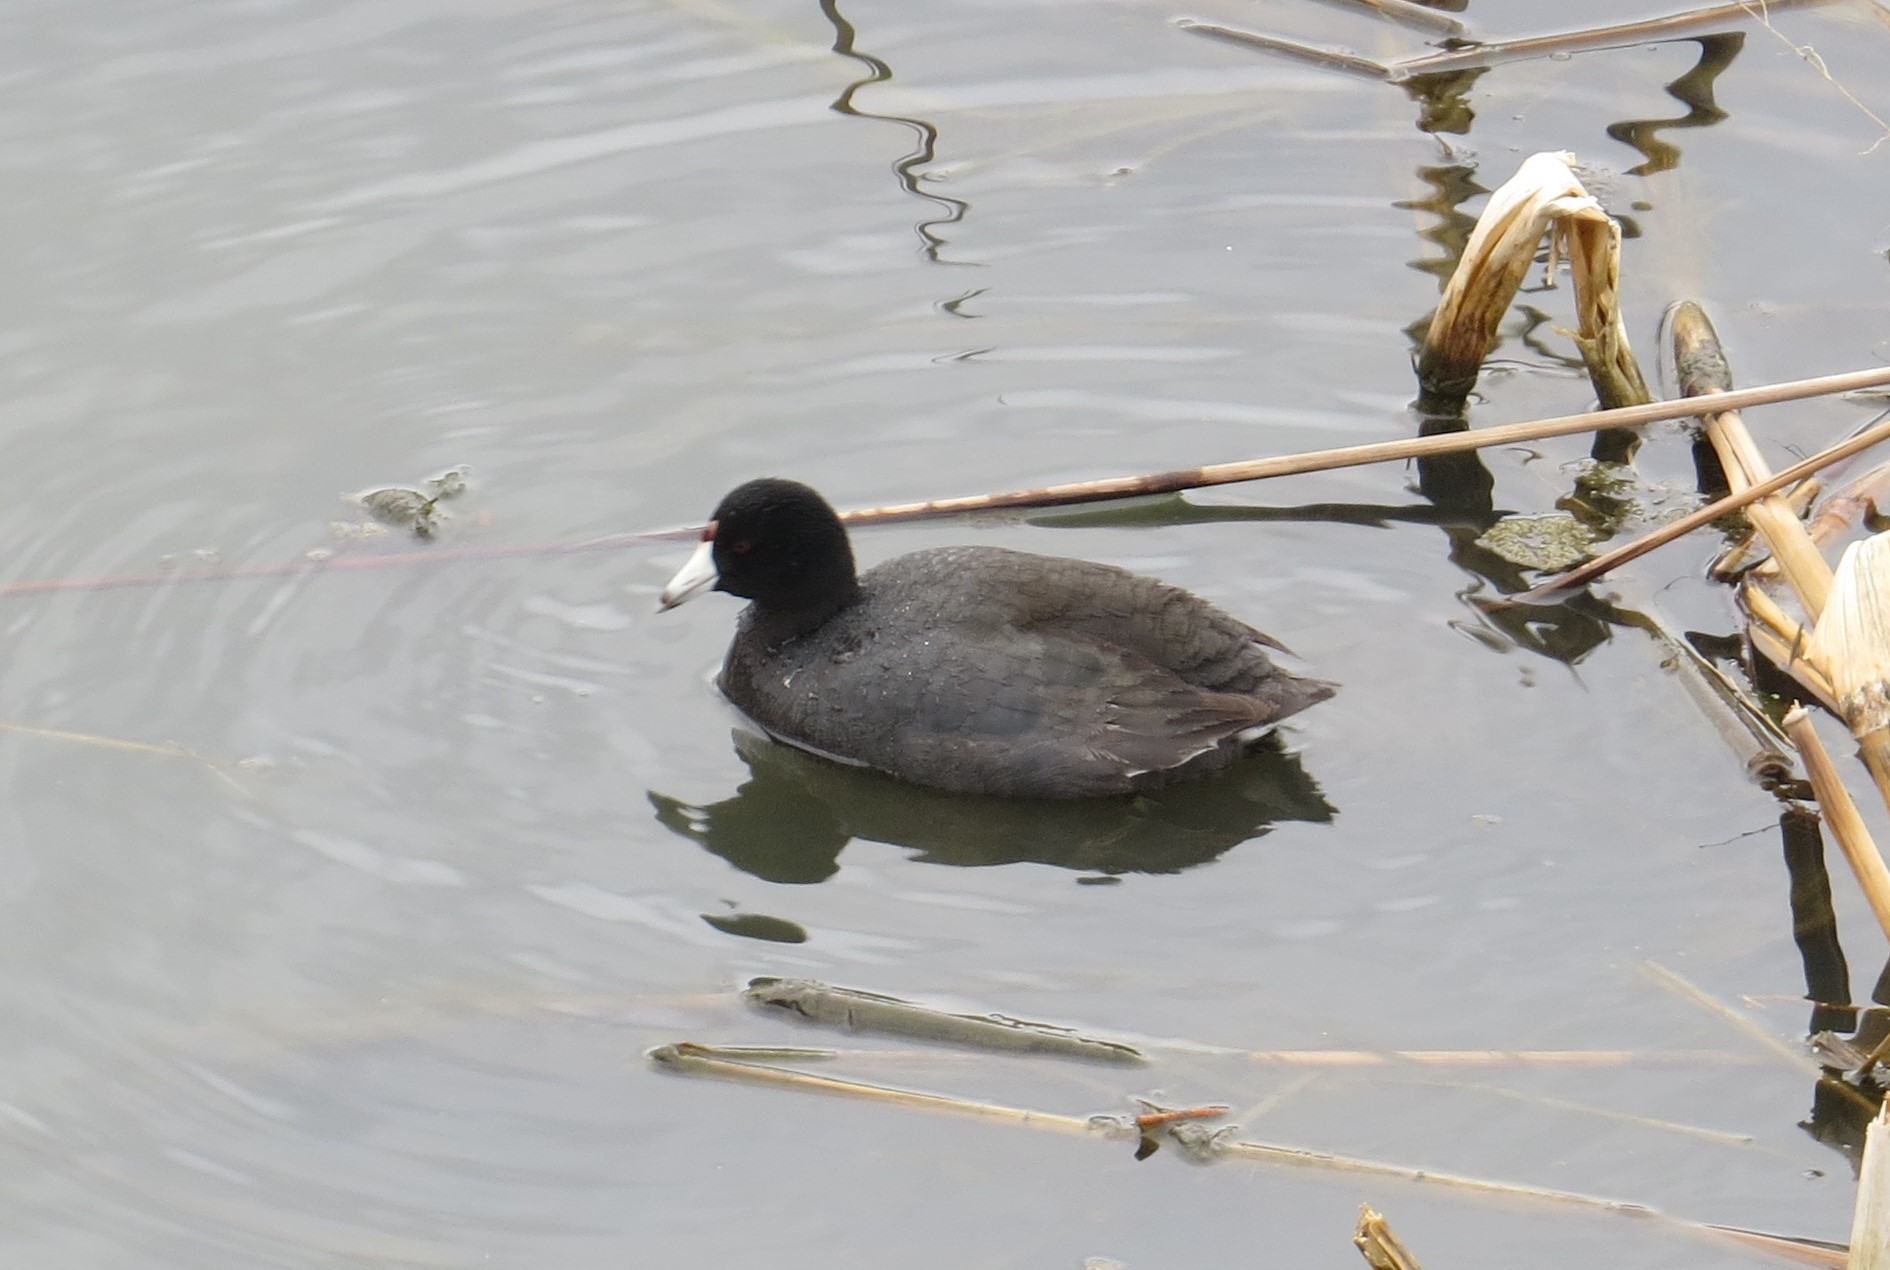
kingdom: Animalia
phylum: Chordata
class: Aves
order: Gruiformes
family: Rallidae
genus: Fulica
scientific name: Fulica americana
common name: American coot
